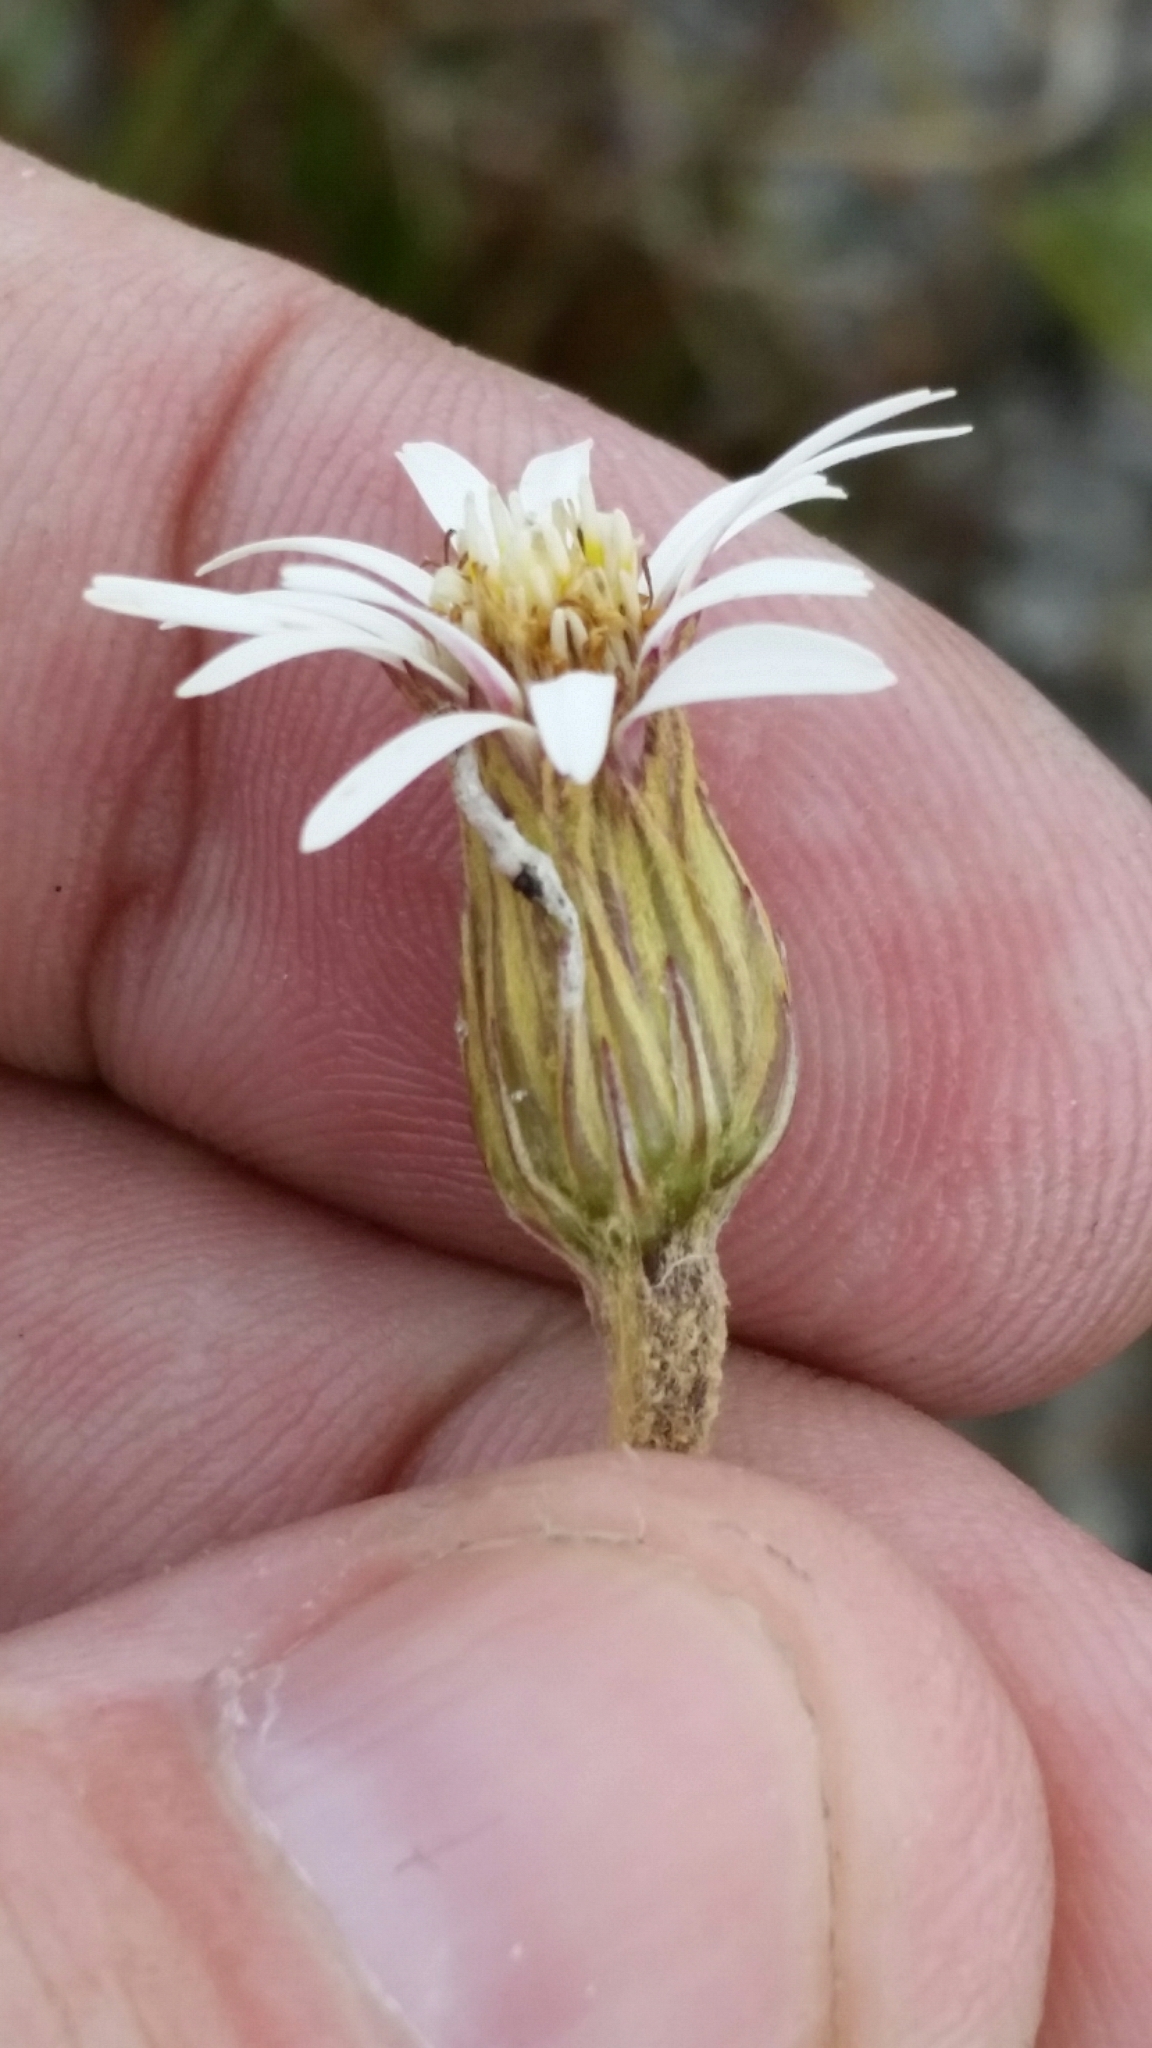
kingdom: Plantae
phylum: Tracheophyta
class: Magnoliopsida
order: Asterales
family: Asteraceae
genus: Chaptalia
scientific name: Chaptalia tomentosa
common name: Woolly sunbonnet
